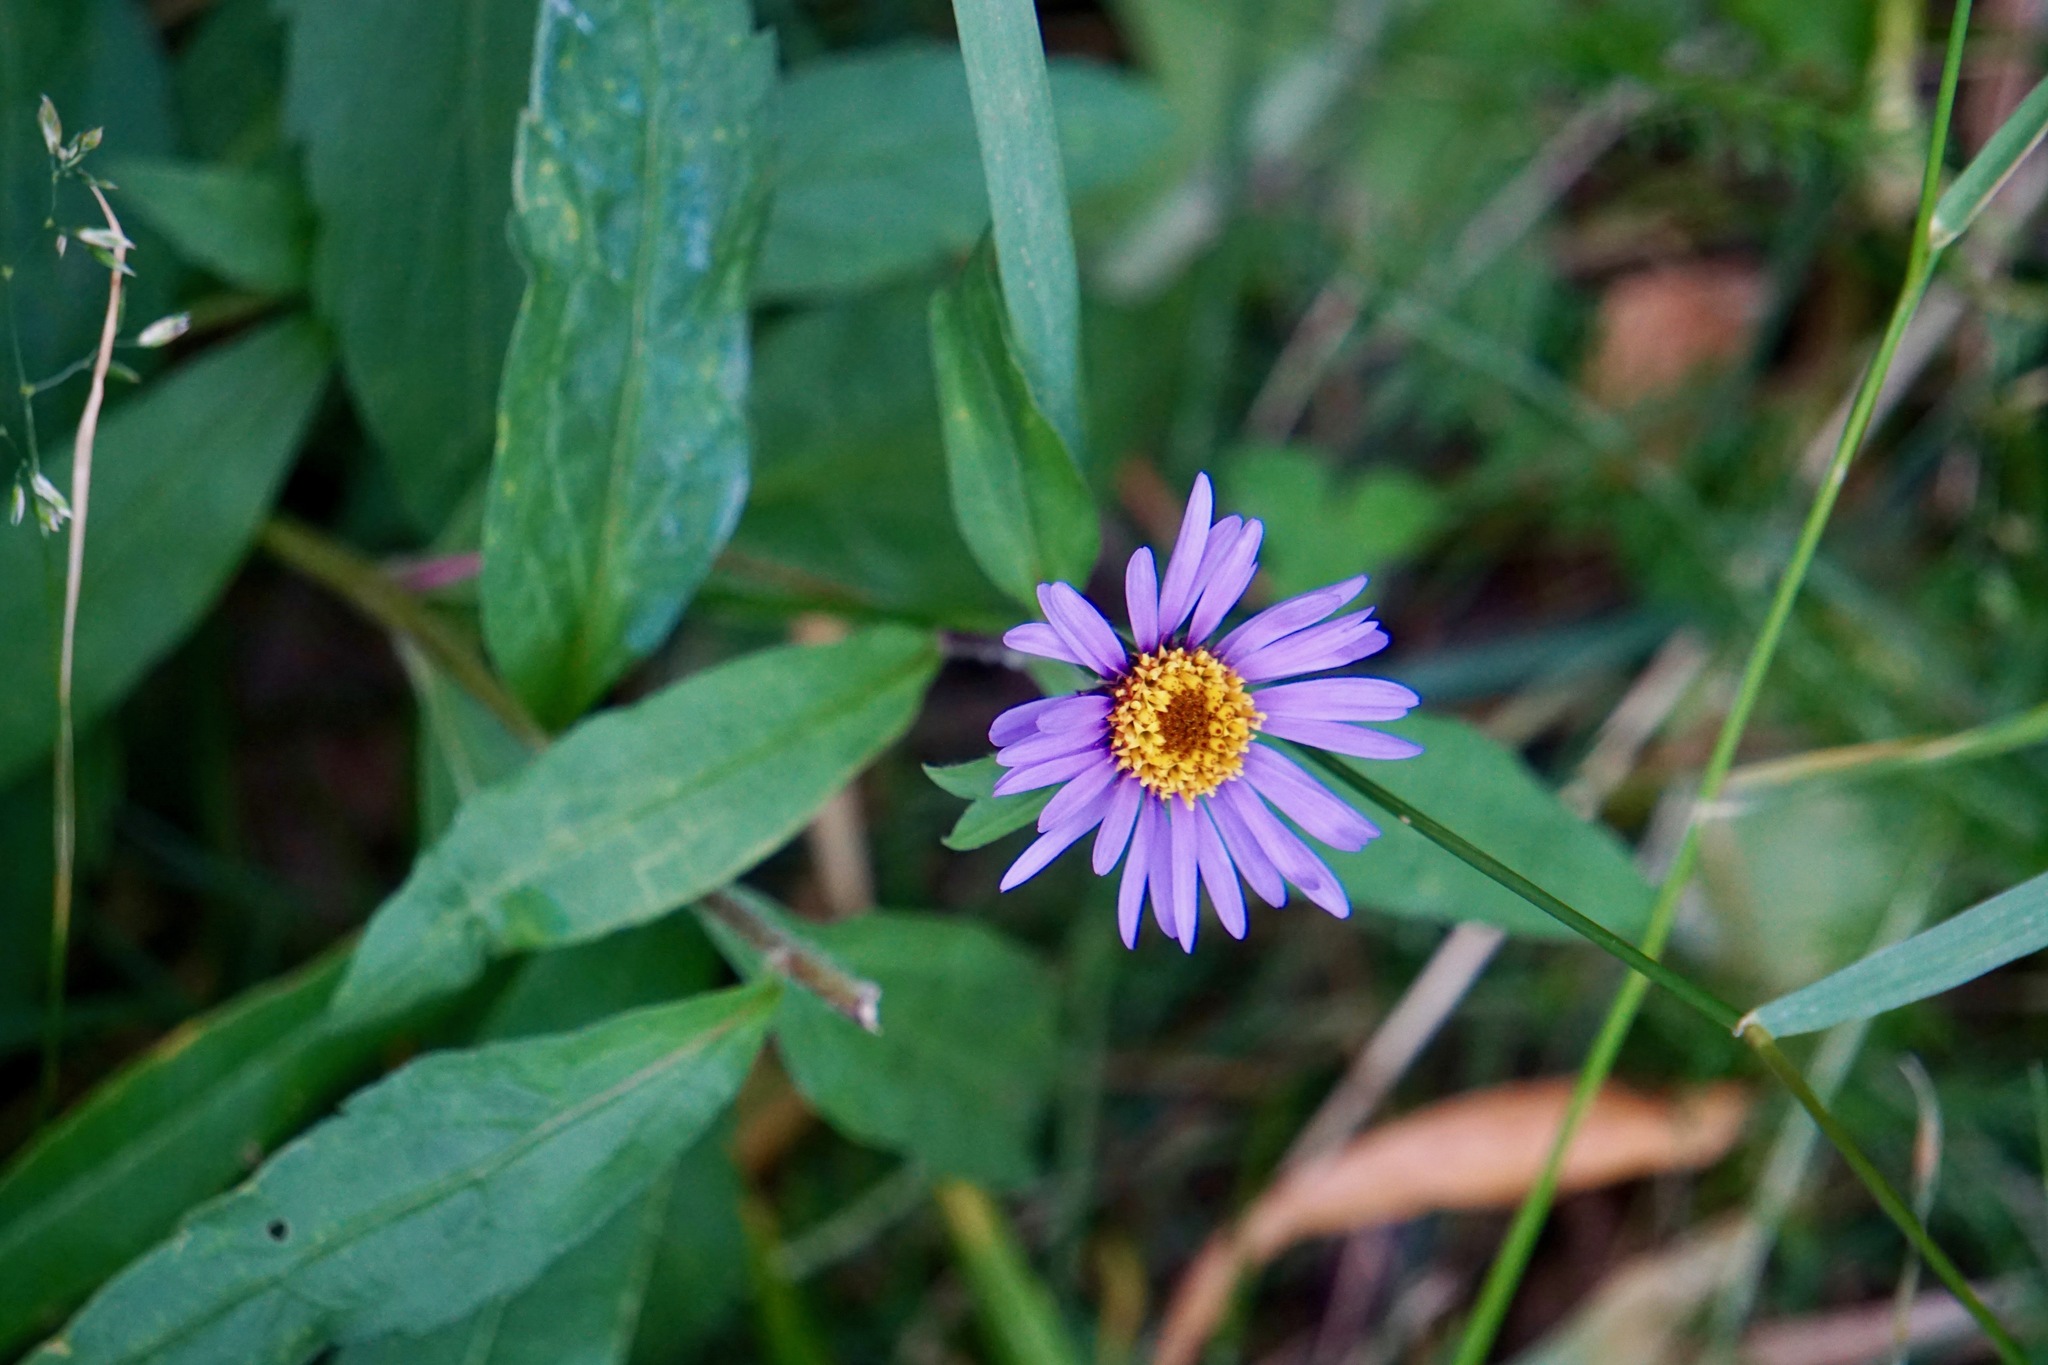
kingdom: Plantae
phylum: Tracheophyta
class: Magnoliopsida
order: Asterales
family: Asteraceae
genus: Eurybia
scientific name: Eurybia sibirica
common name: Arctic aster
